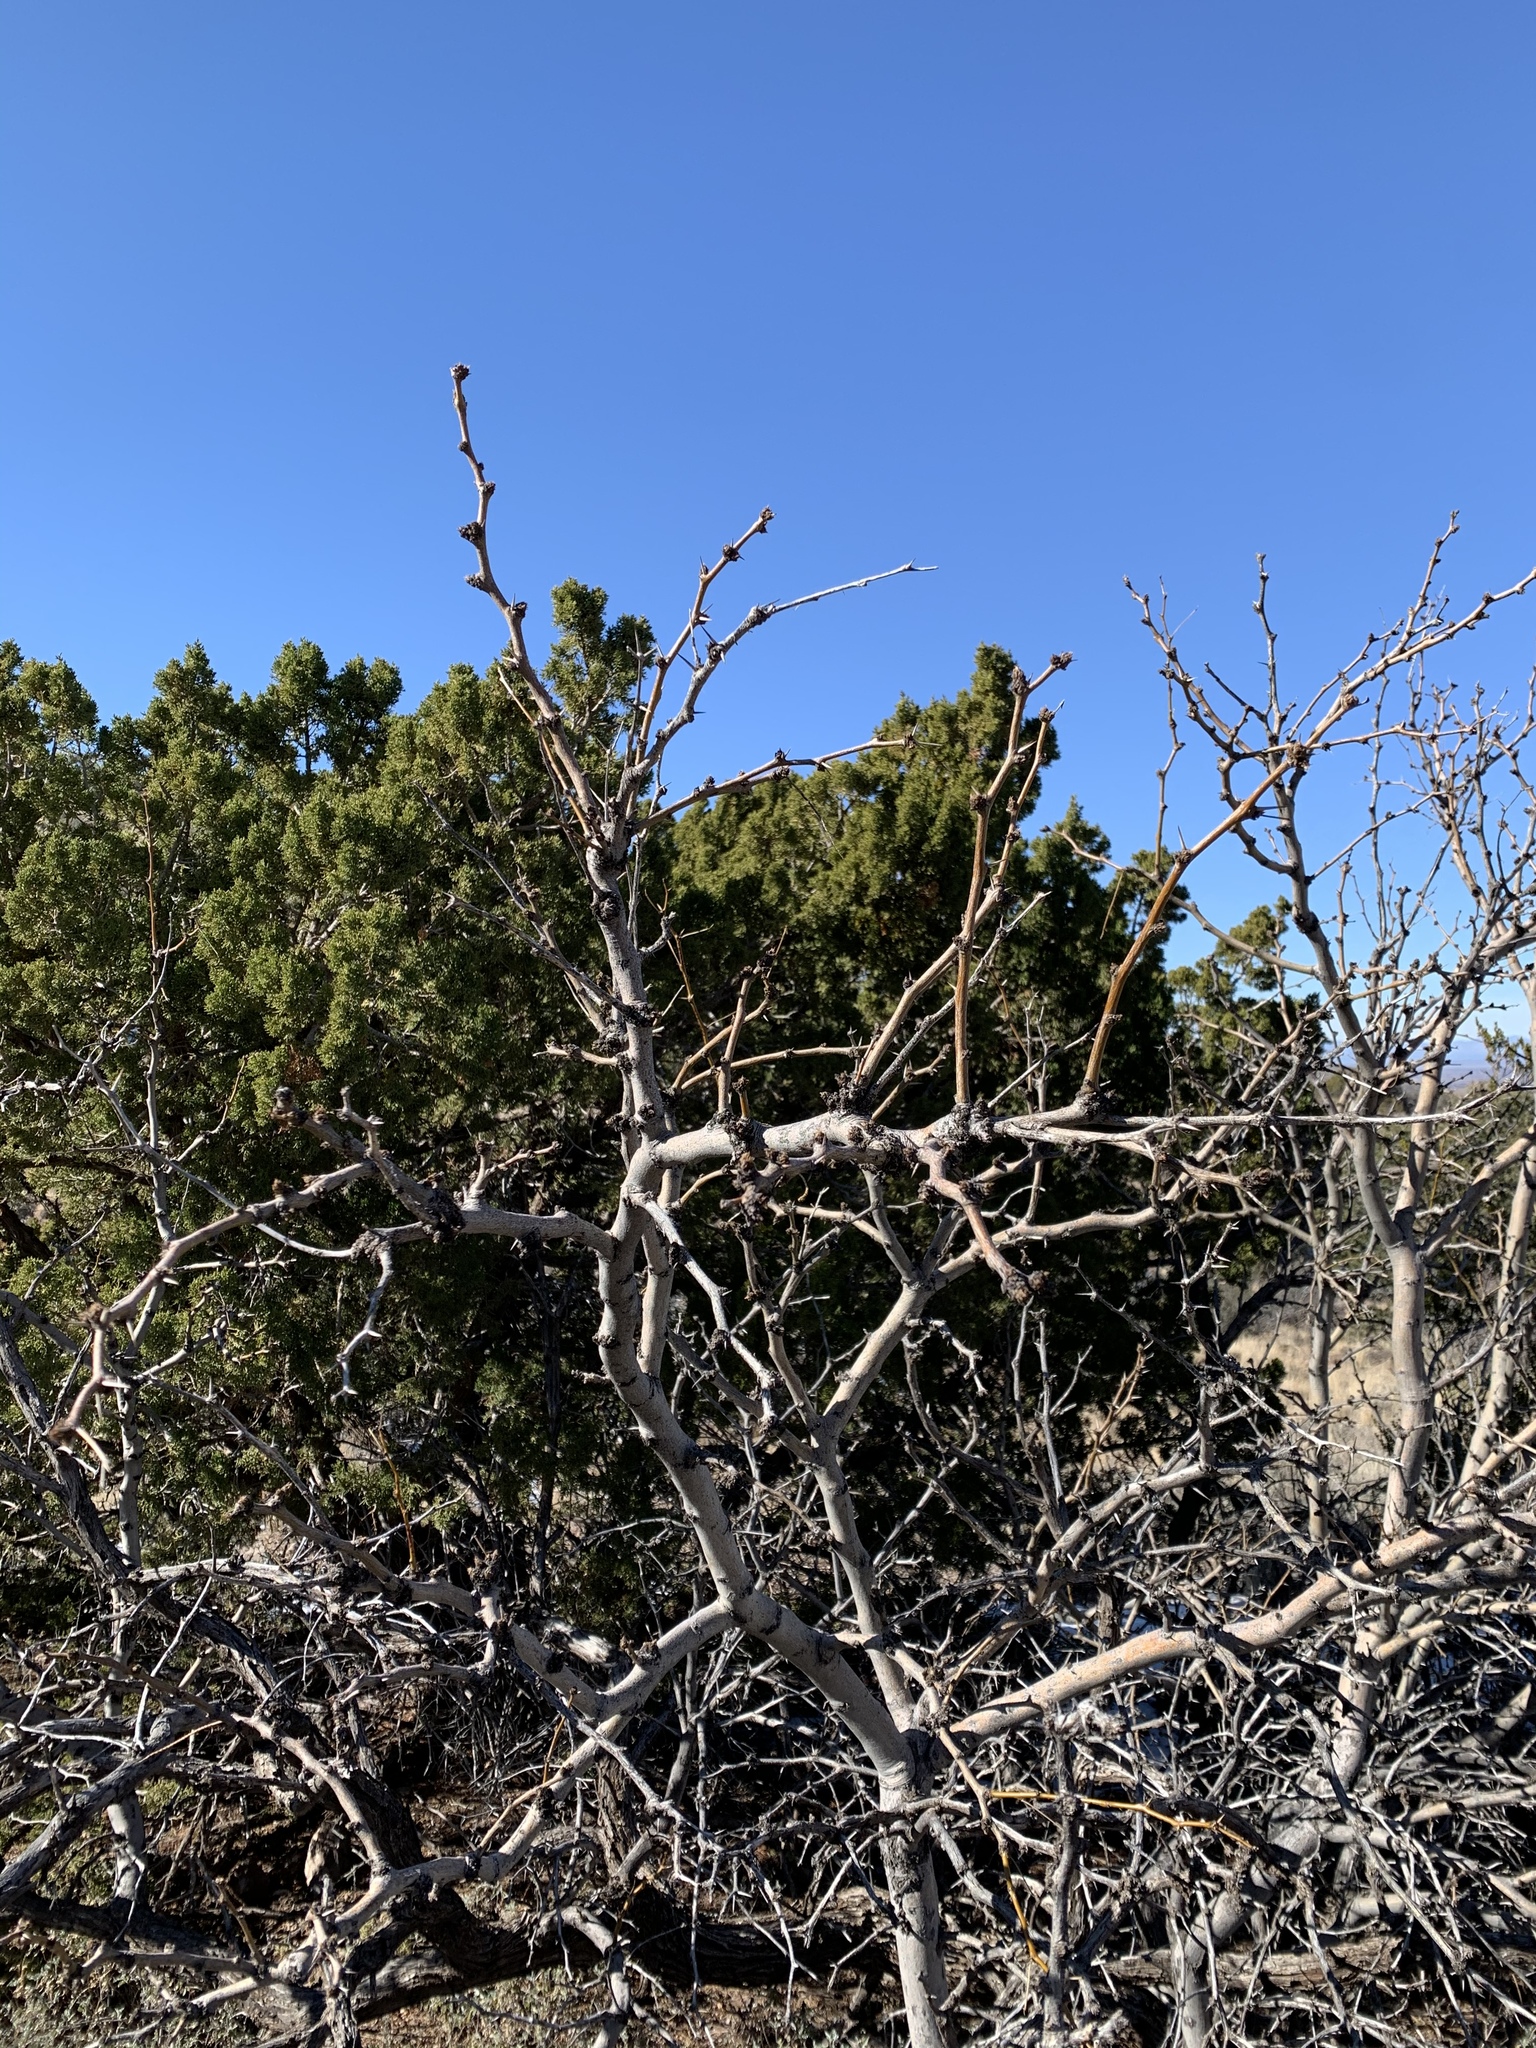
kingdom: Plantae
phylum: Tracheophyta
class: Magnoliopsida
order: Fabales
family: Fabaceae
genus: Prosopis
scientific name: Prosopis glandulosa
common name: Honey mesquite
